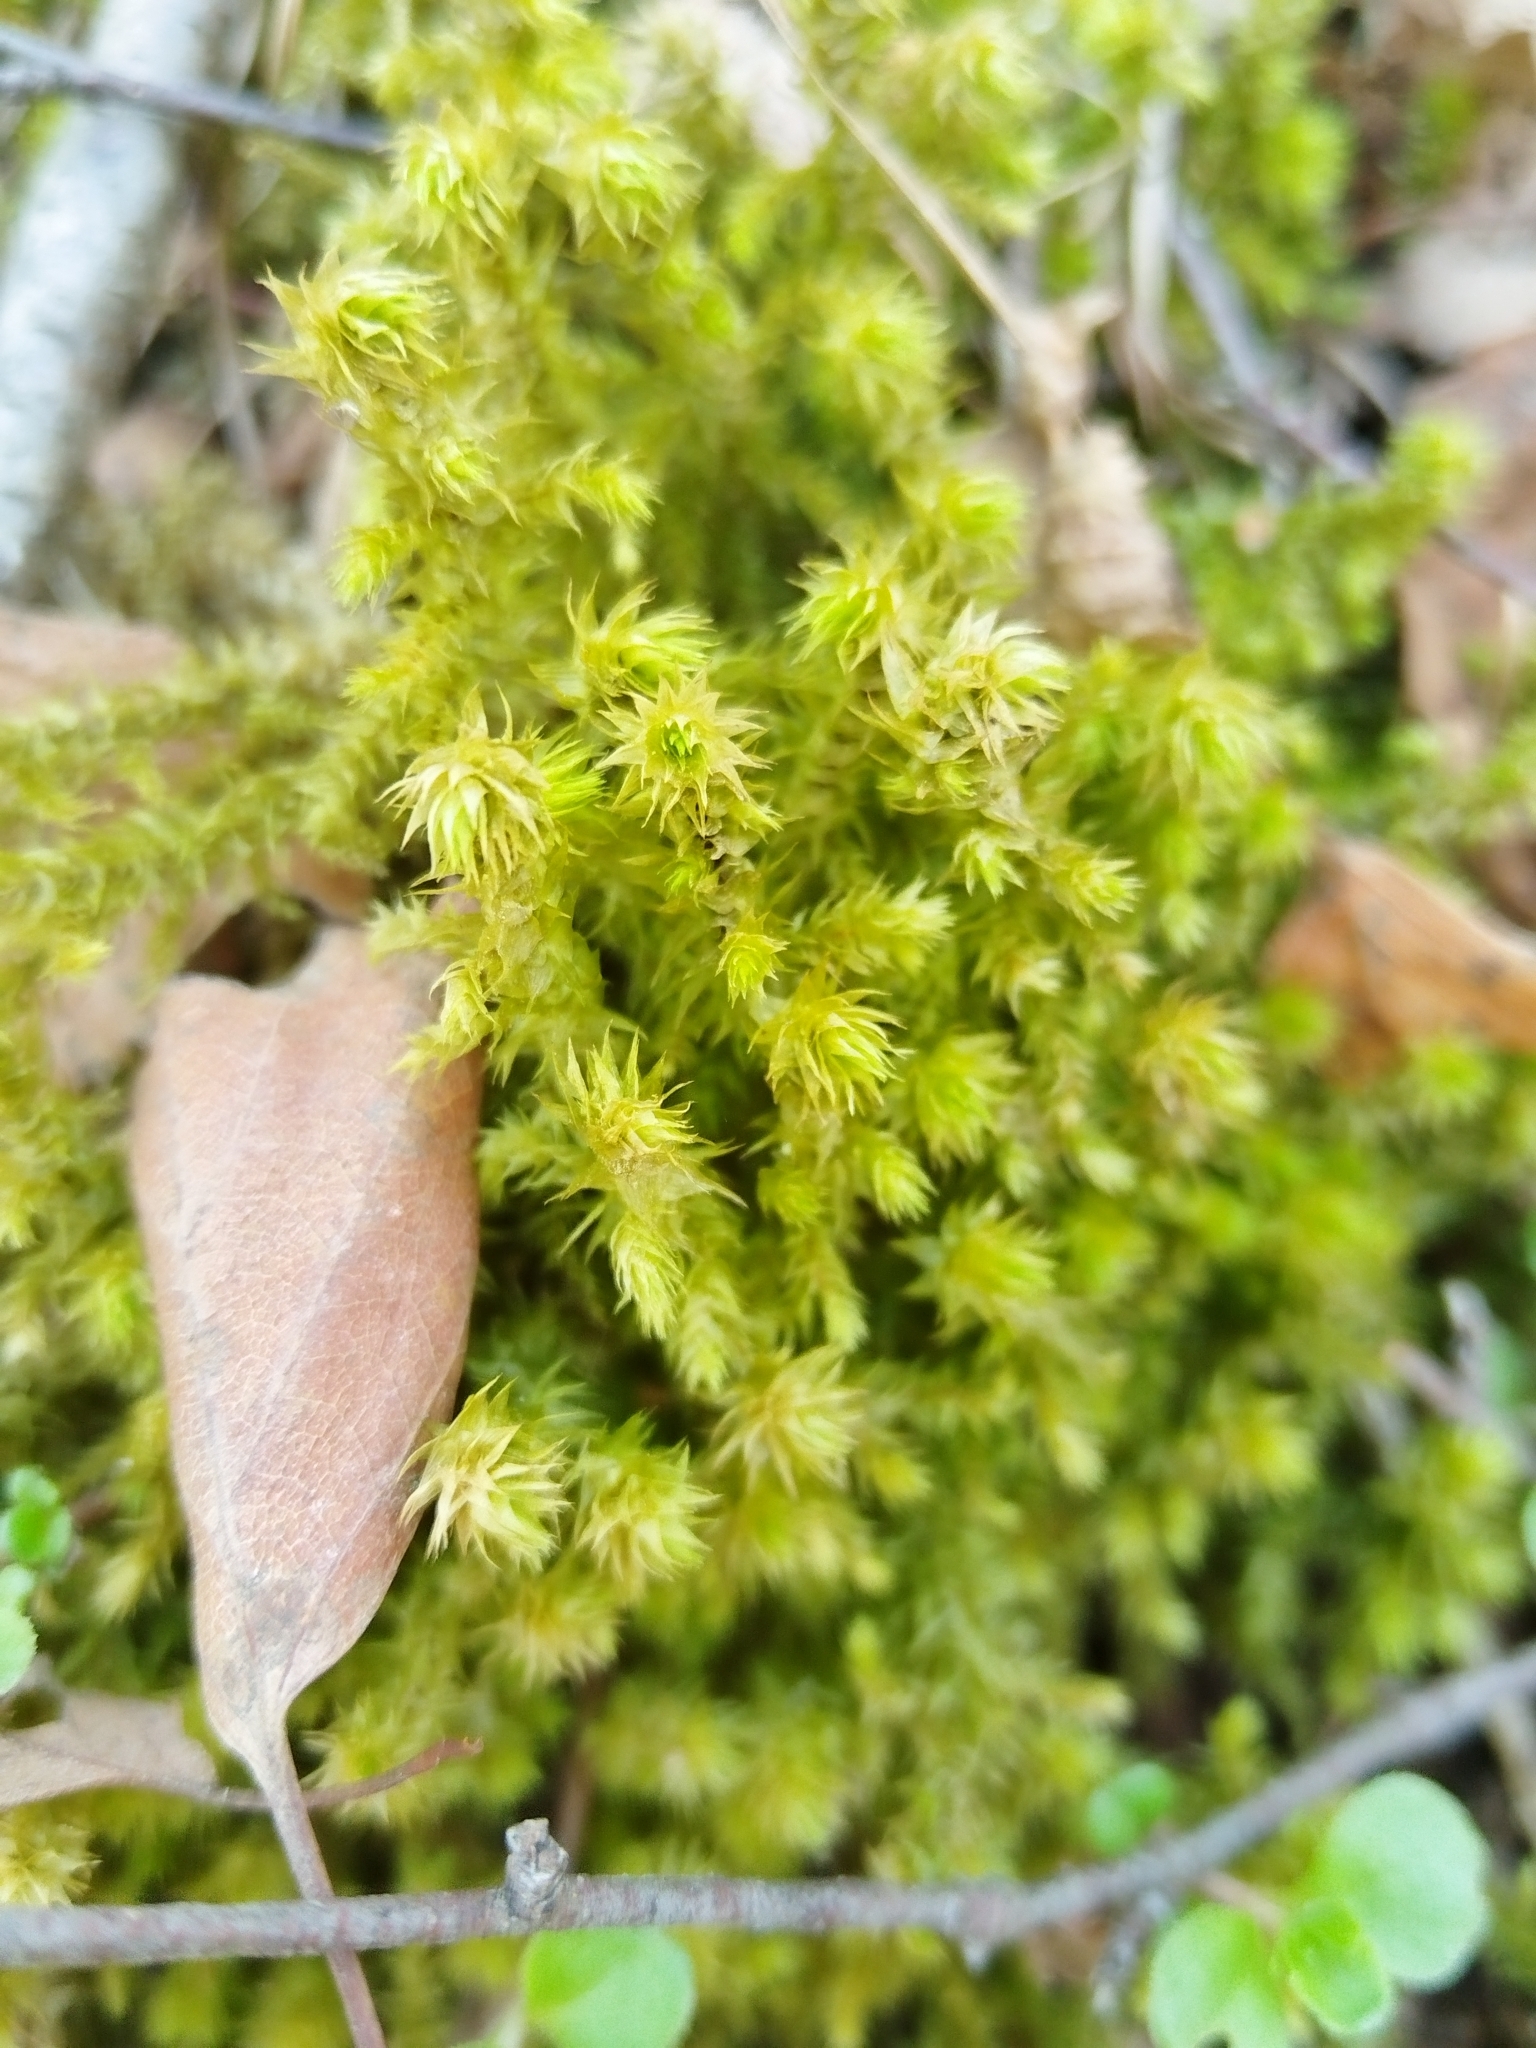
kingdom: Plantae
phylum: Bryophyta
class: Bryopsida
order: Hypnales
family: Hylocomiaceae
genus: Hylocomiadelphus
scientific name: Hylocomiadelphus triquetrus
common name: Rough goose neck moss
